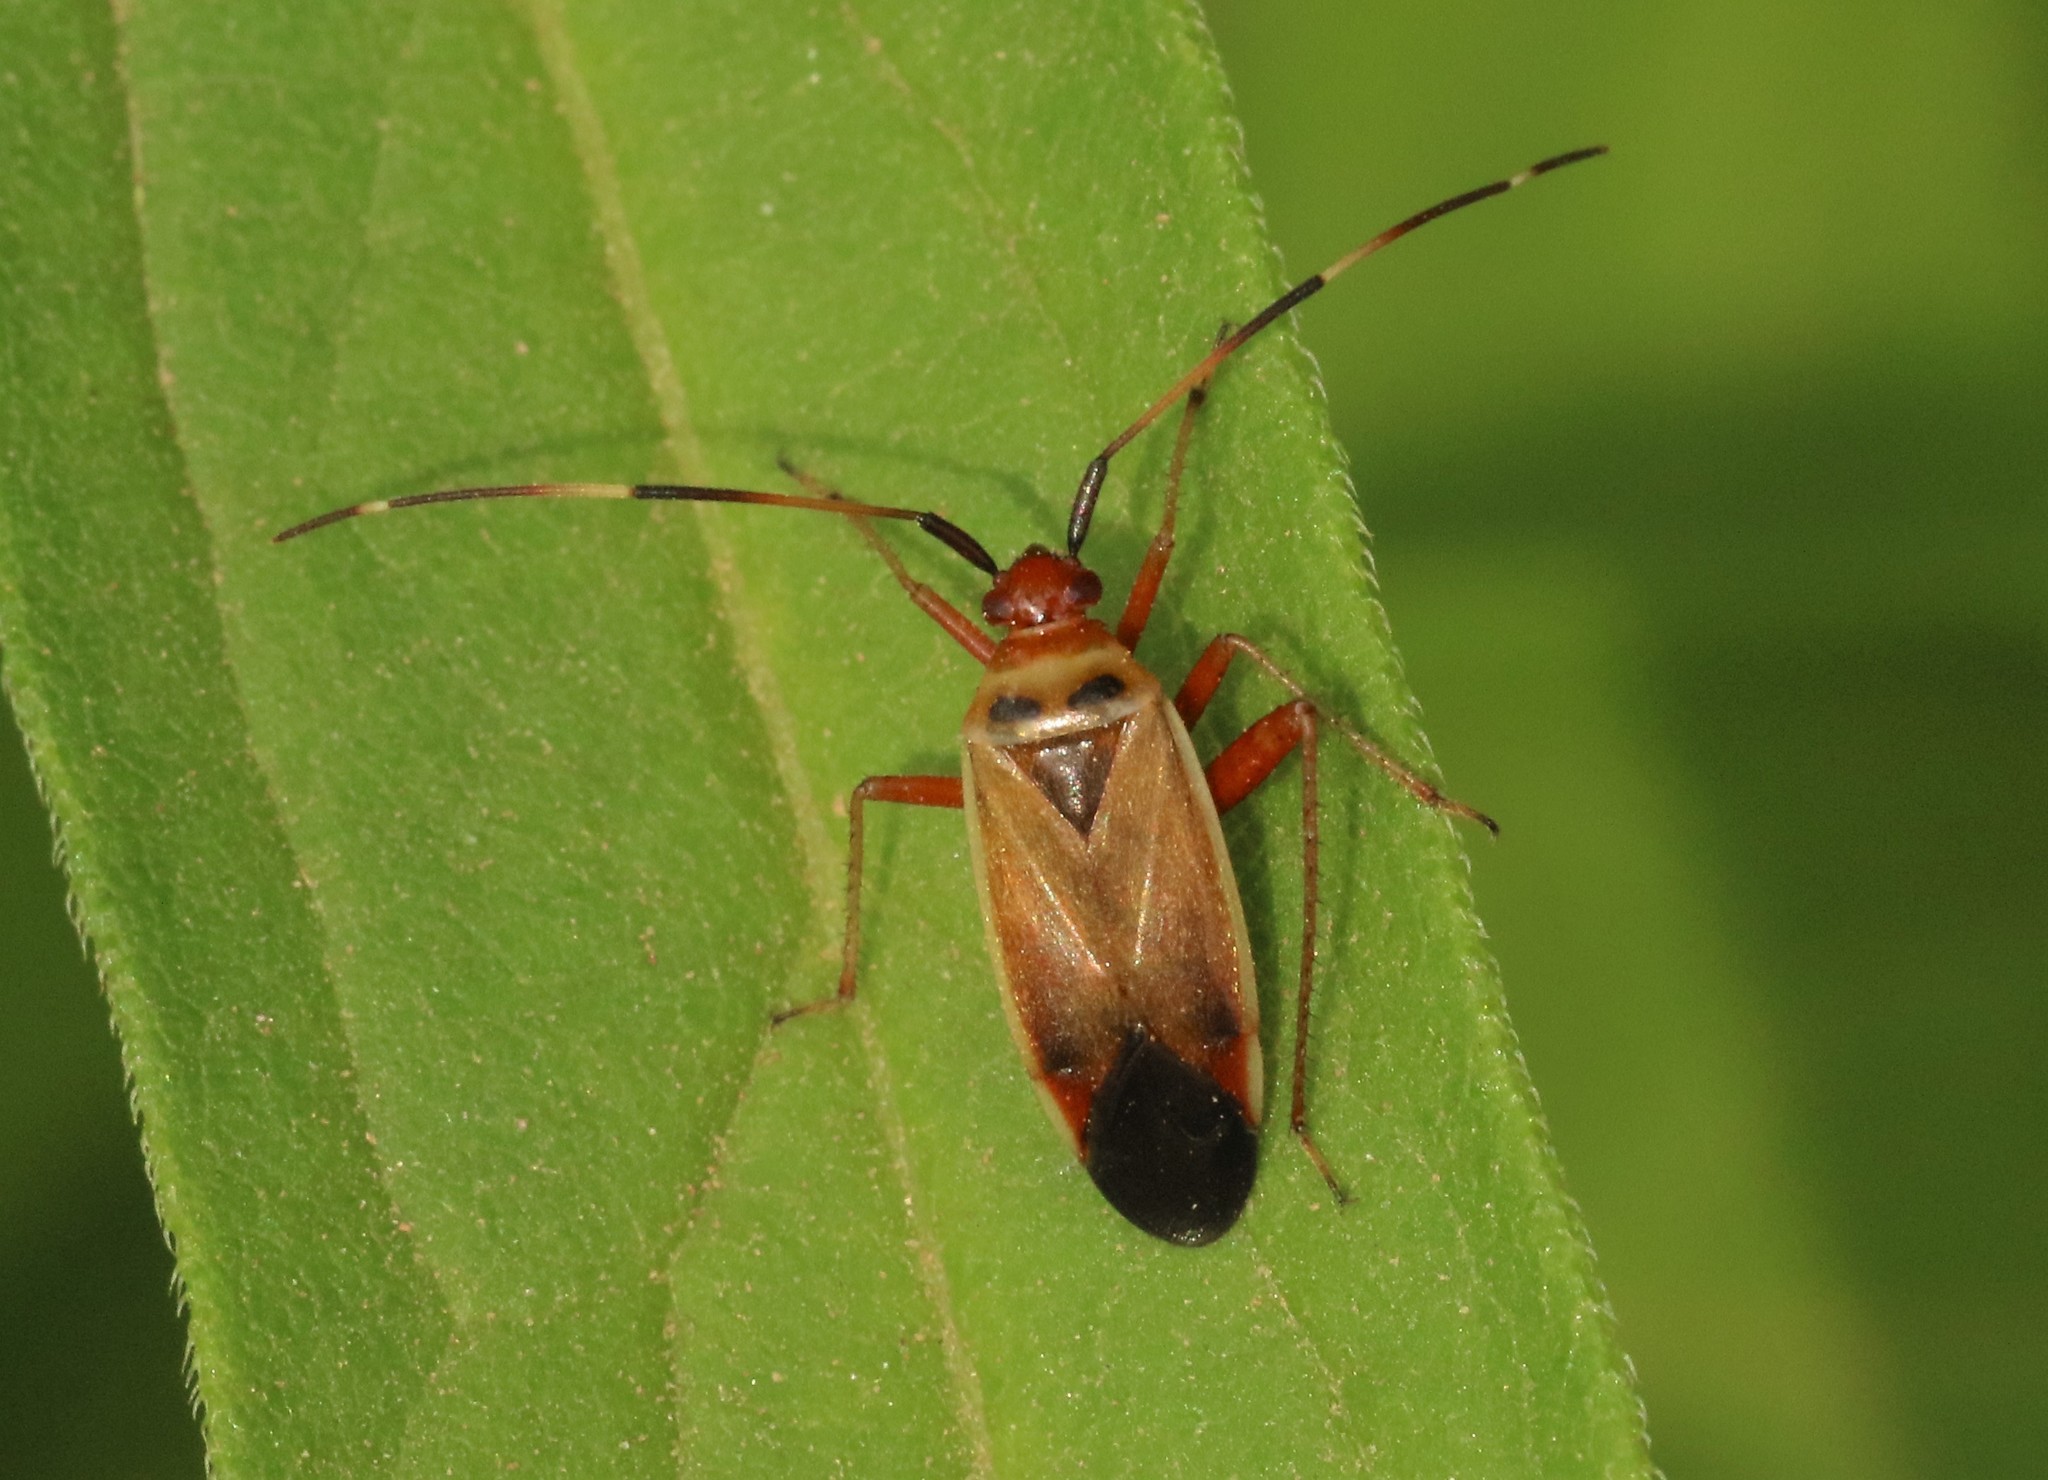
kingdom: Animalia
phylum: Arthropoda
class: Insecta
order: Hemiptera
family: Miridae
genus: Adelphocoris
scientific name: Adelphocoris rapidus
